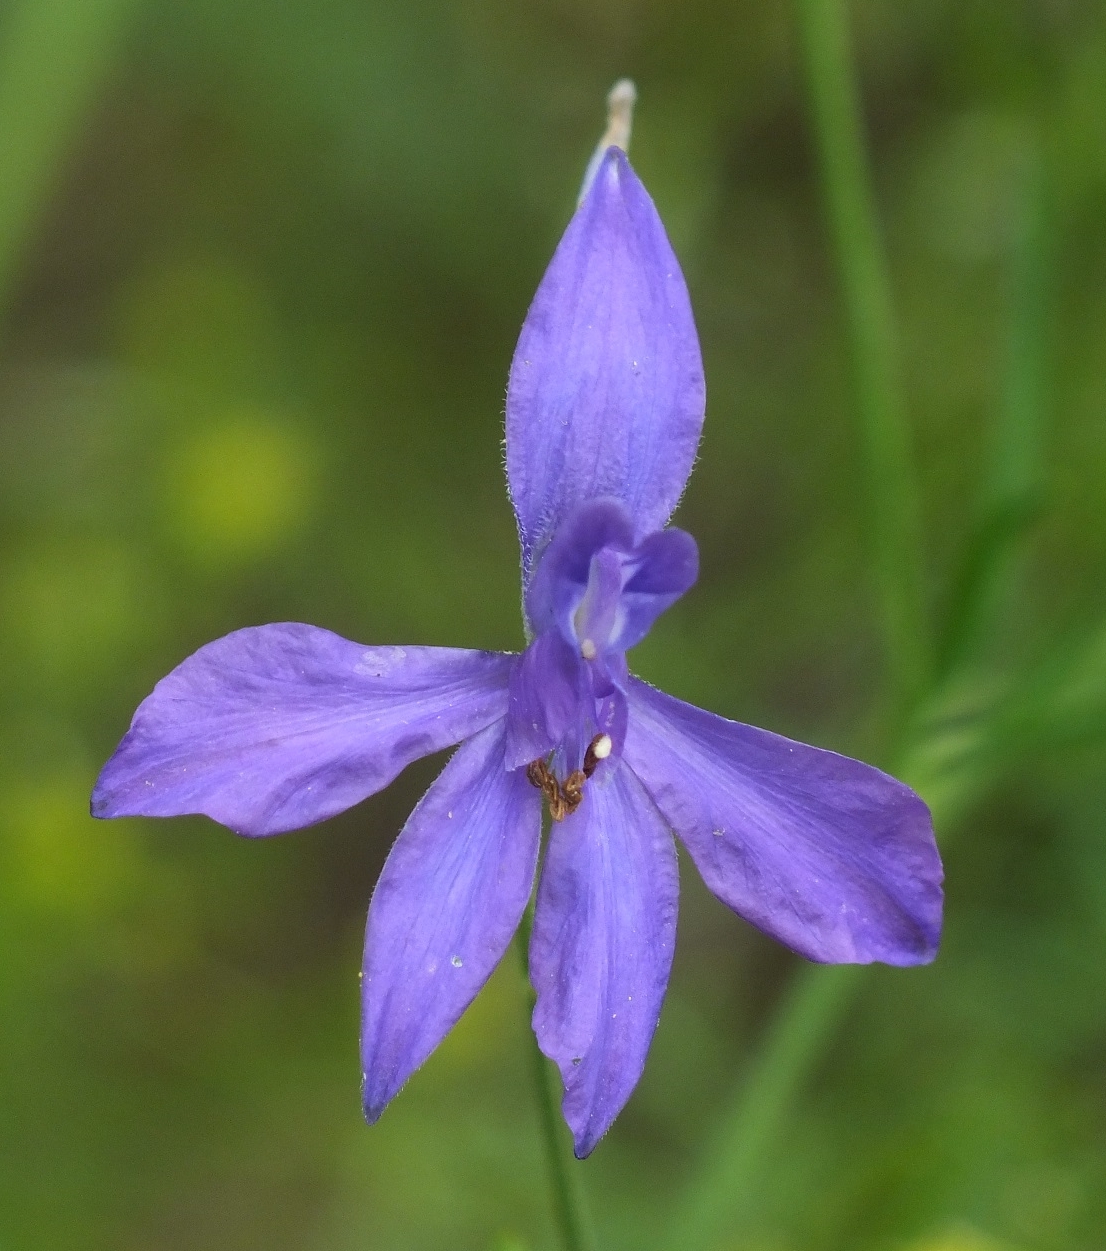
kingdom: Plantae
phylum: Tracheophyta
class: Magnoliopsida
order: Ranunculales
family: Ranunculaceae
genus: Delphinium
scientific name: Delphinium consolida
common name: Branching larkspur
